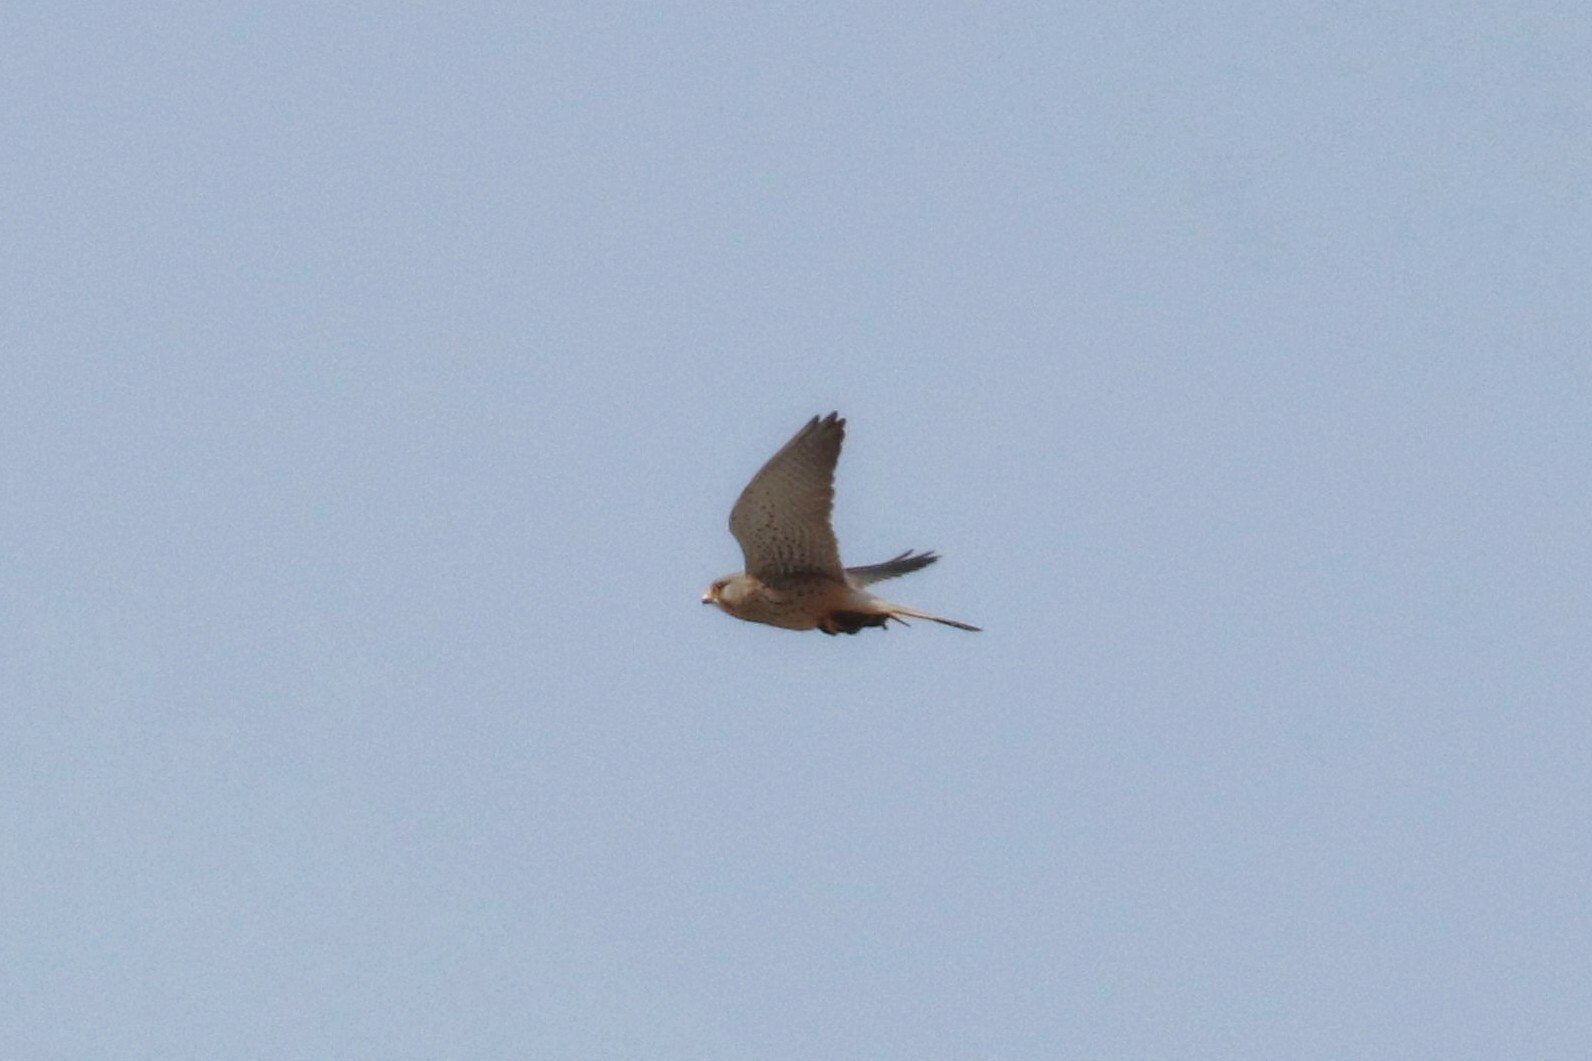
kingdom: Animalia
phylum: Chordata
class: Aves
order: Falconiformes
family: Falconidae
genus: Falco
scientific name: Falco tinnunculus
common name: Common kestrel
